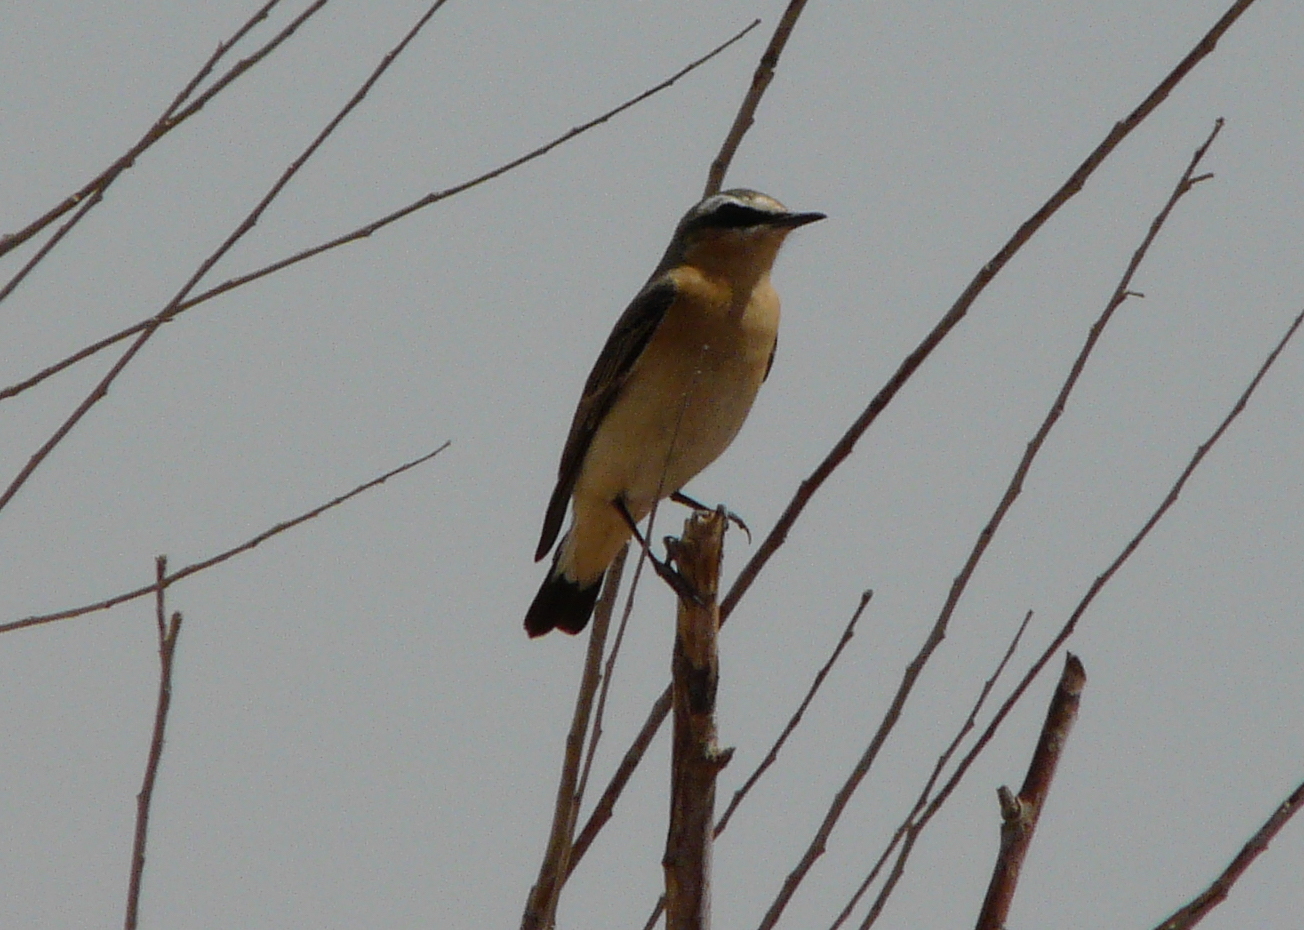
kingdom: Animalia
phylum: Chordata
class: Aves
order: Passeriformes
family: Muscicapidae
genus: Oenanthe
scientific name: Oenanthe oenanthe
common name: Northern wheatear
